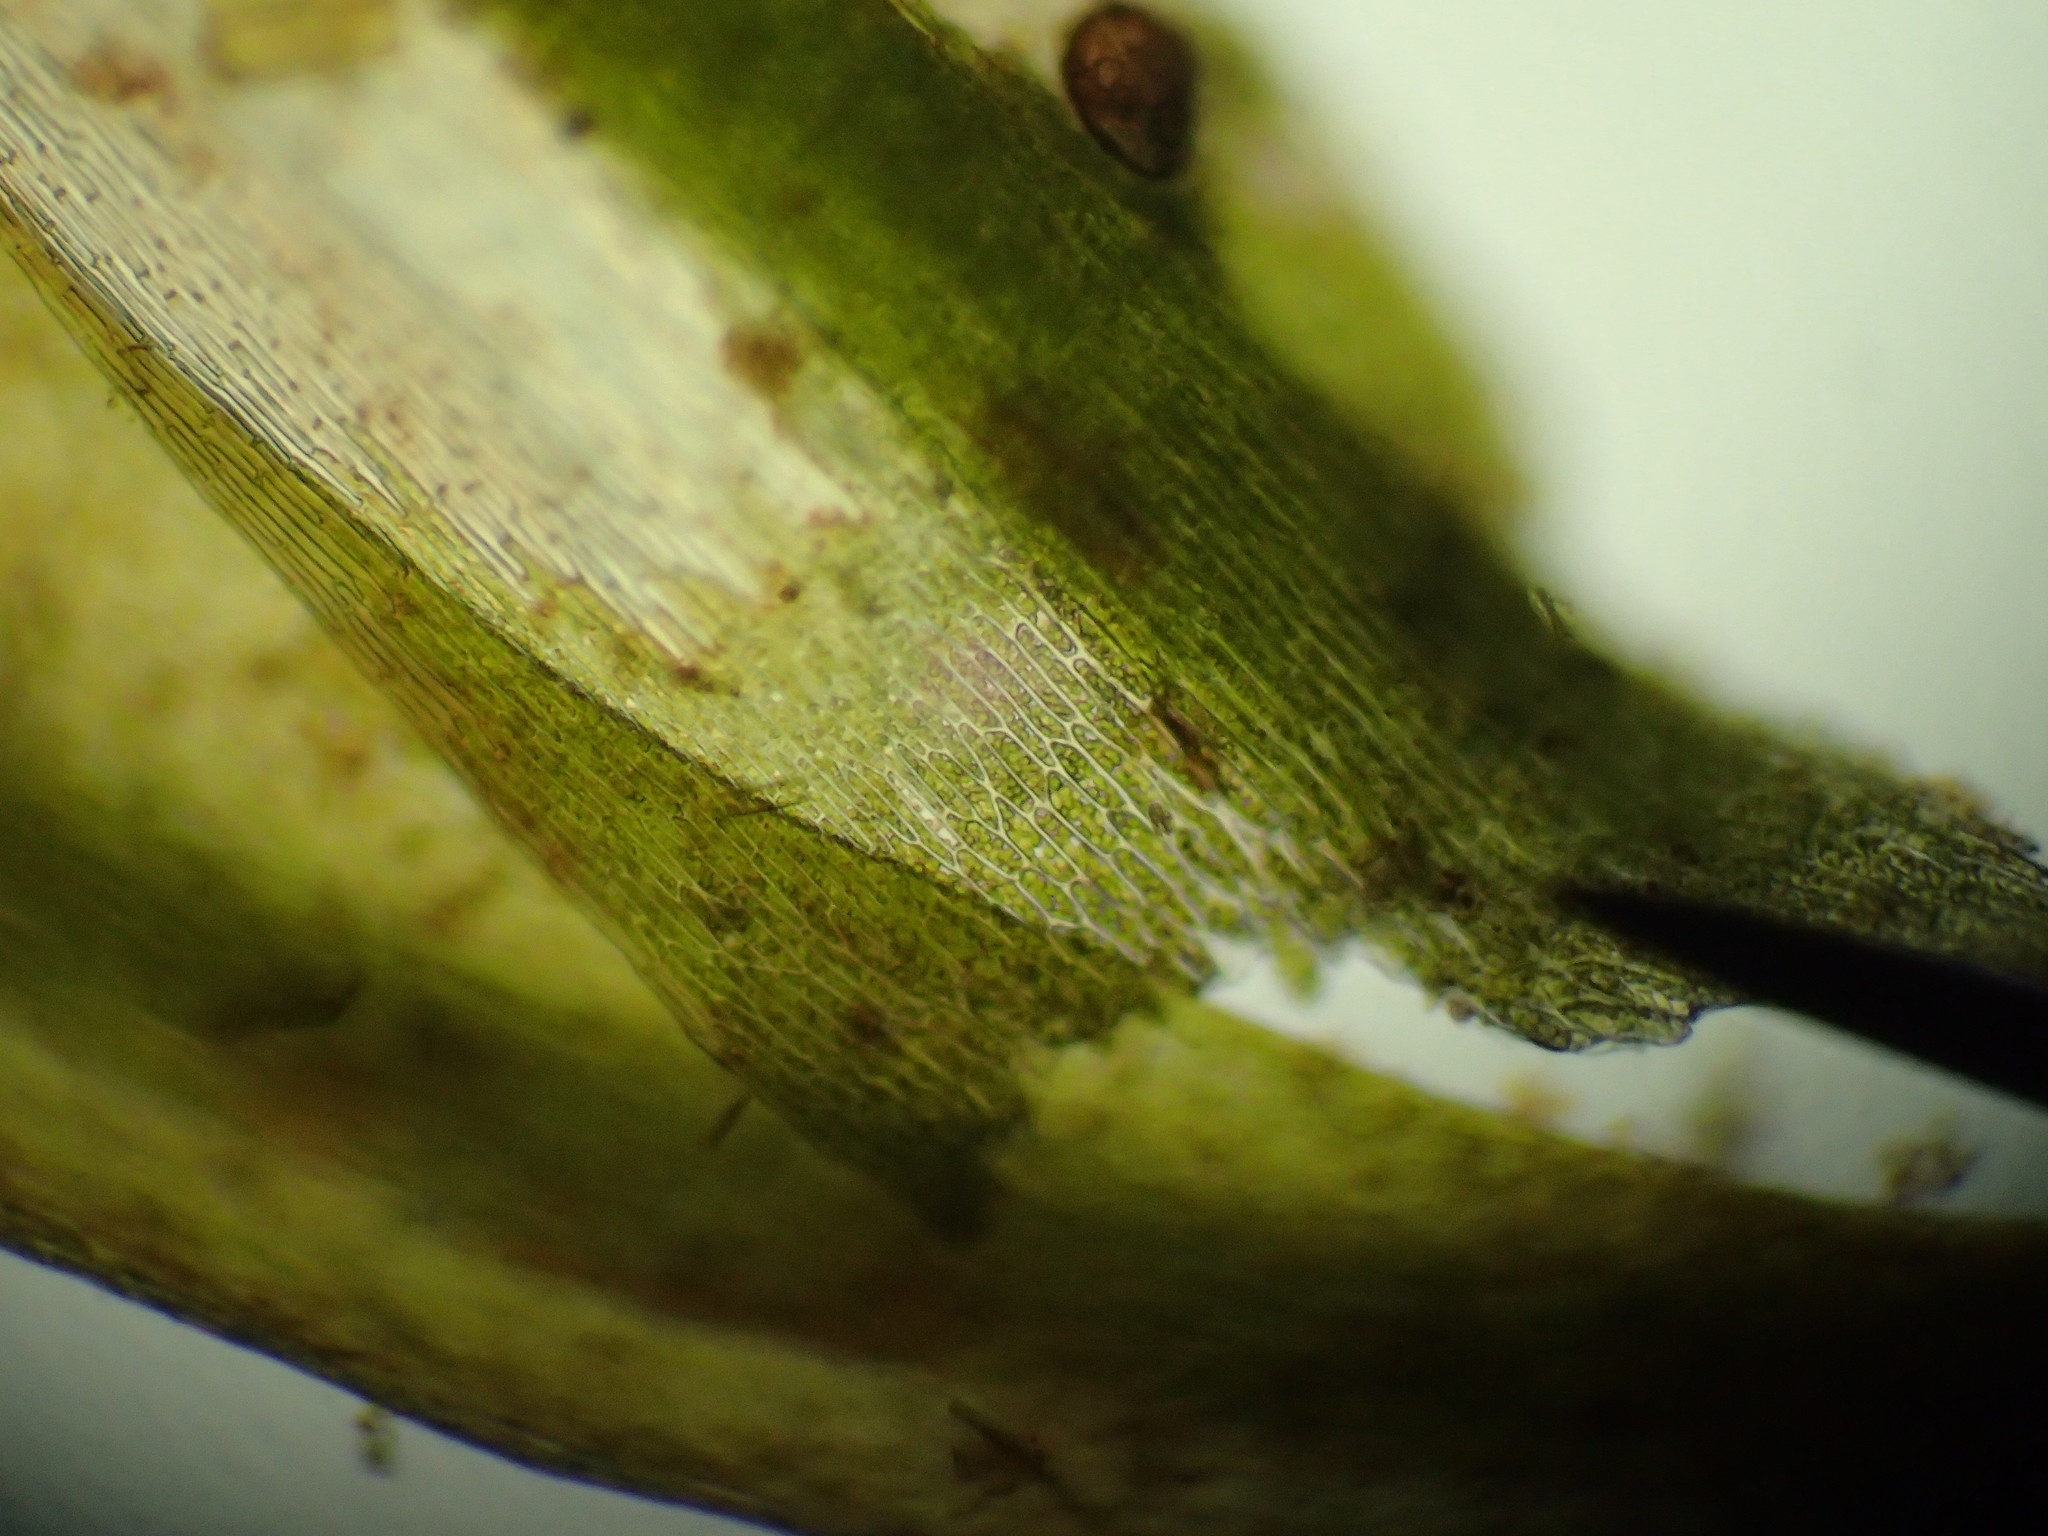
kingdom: Plantae
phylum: Bryophyta
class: Bryopsida
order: Hypnales
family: Amblystegiaceae
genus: Drepanocladus
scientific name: Drepanocladus longifolius
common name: Long-leaved hook moss
